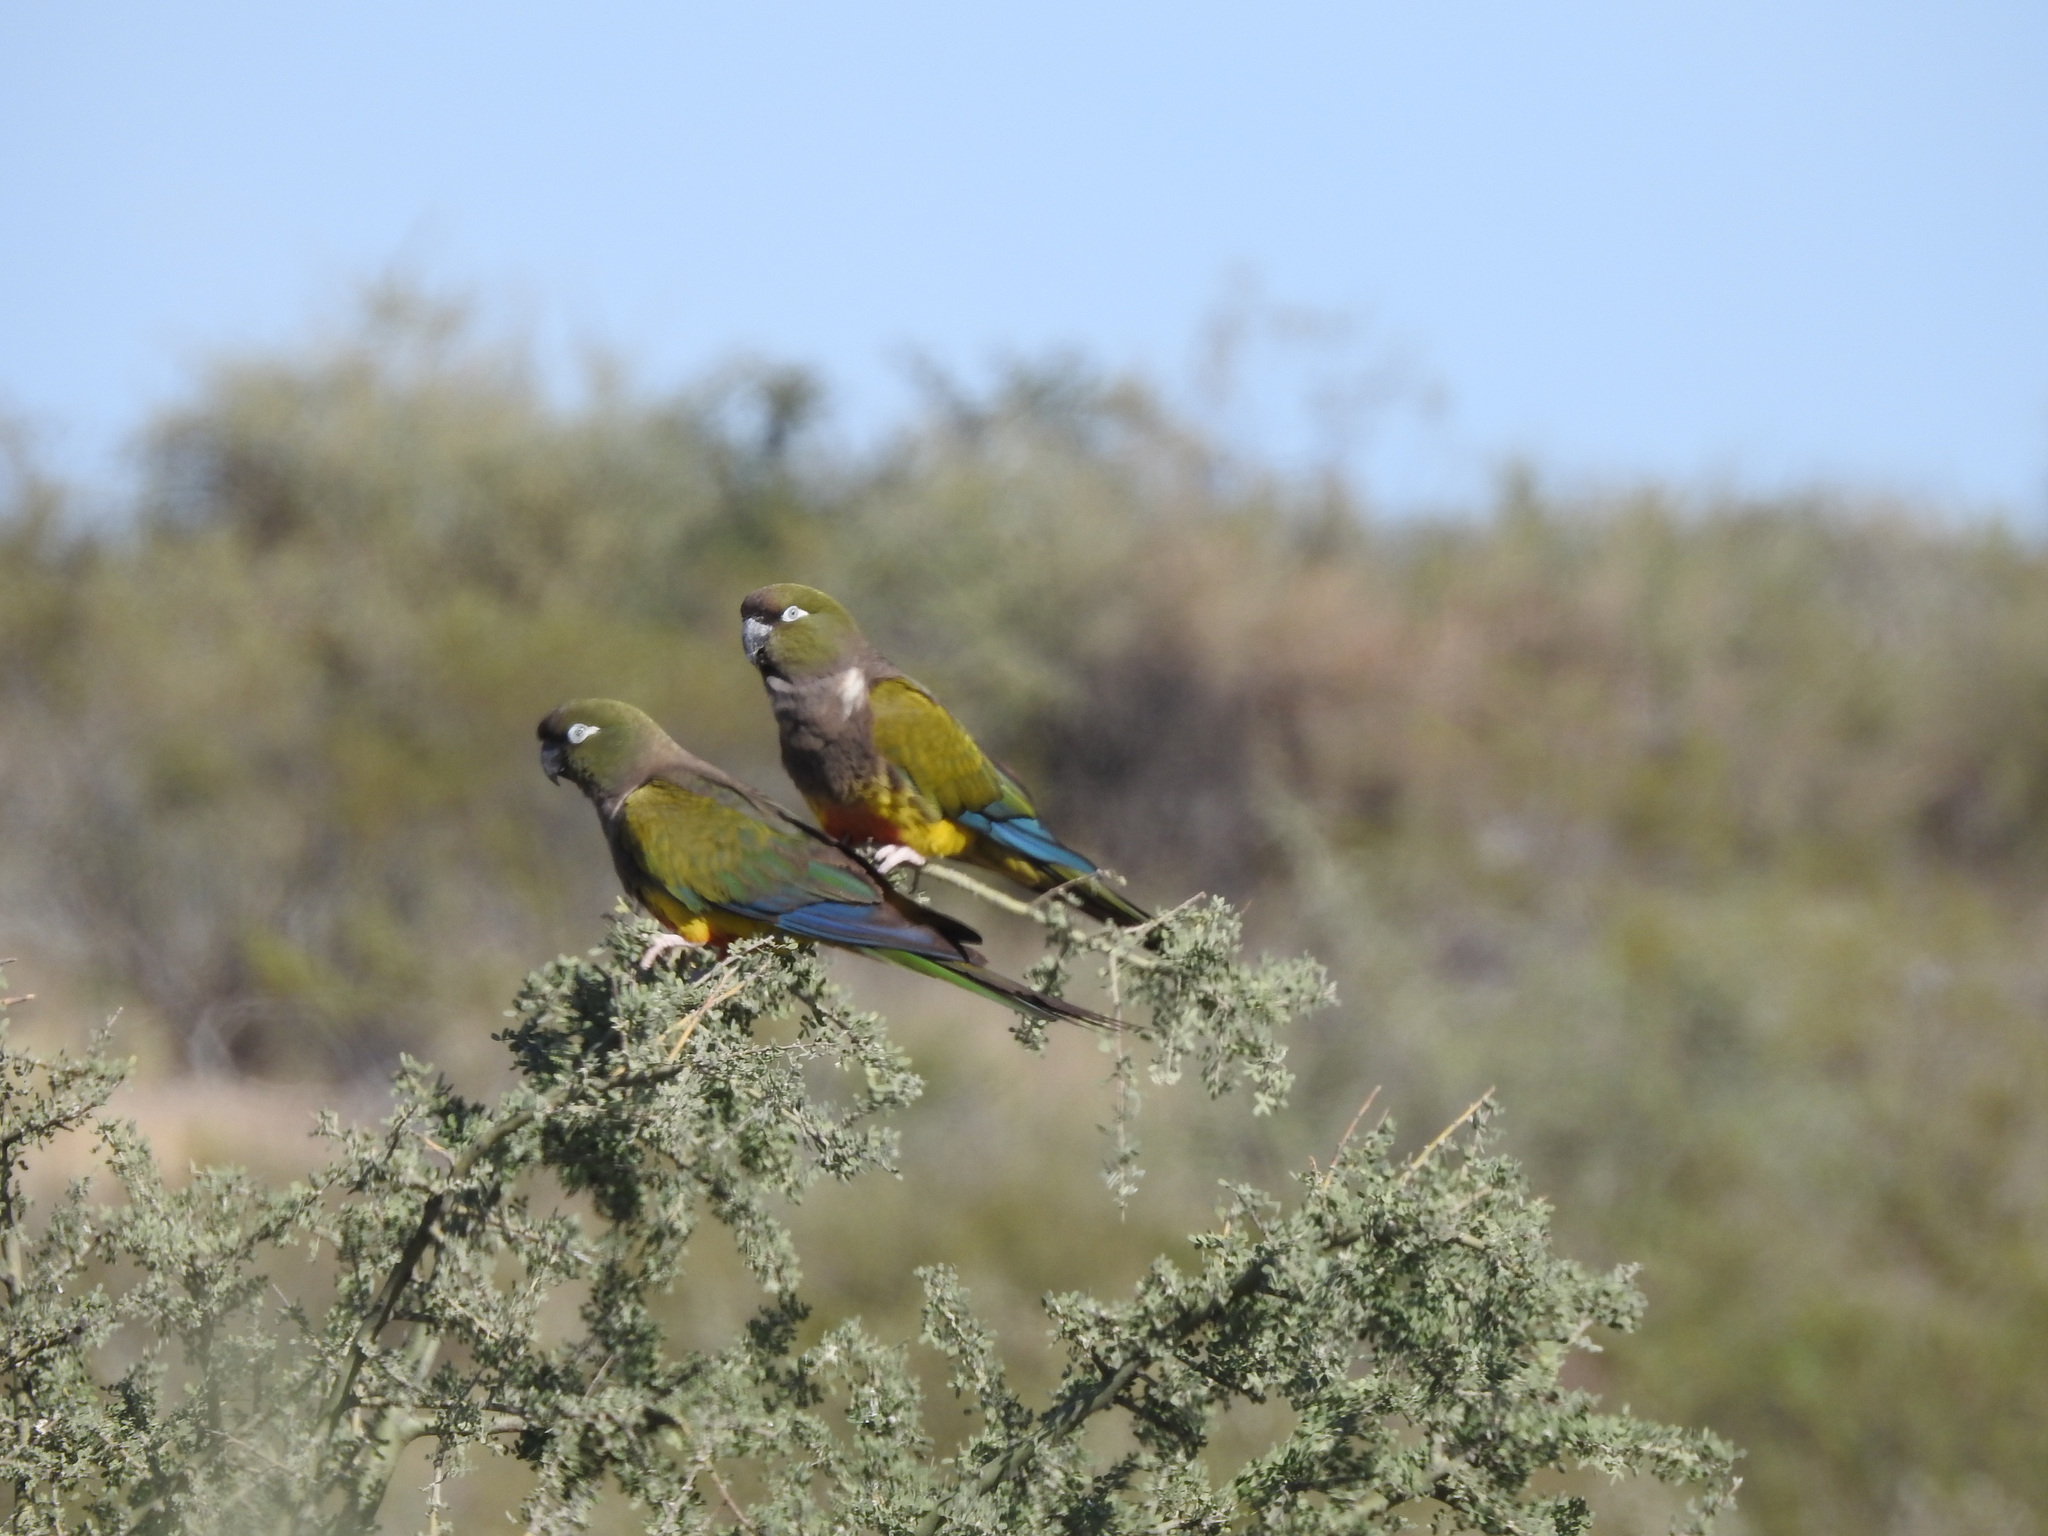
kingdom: Animalia
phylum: Chordata
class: Aves
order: Psittaciformes
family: Psittacidae
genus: Cyanoliseus
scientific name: Cyanoliseus patagonus
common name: Burrowing parrot
